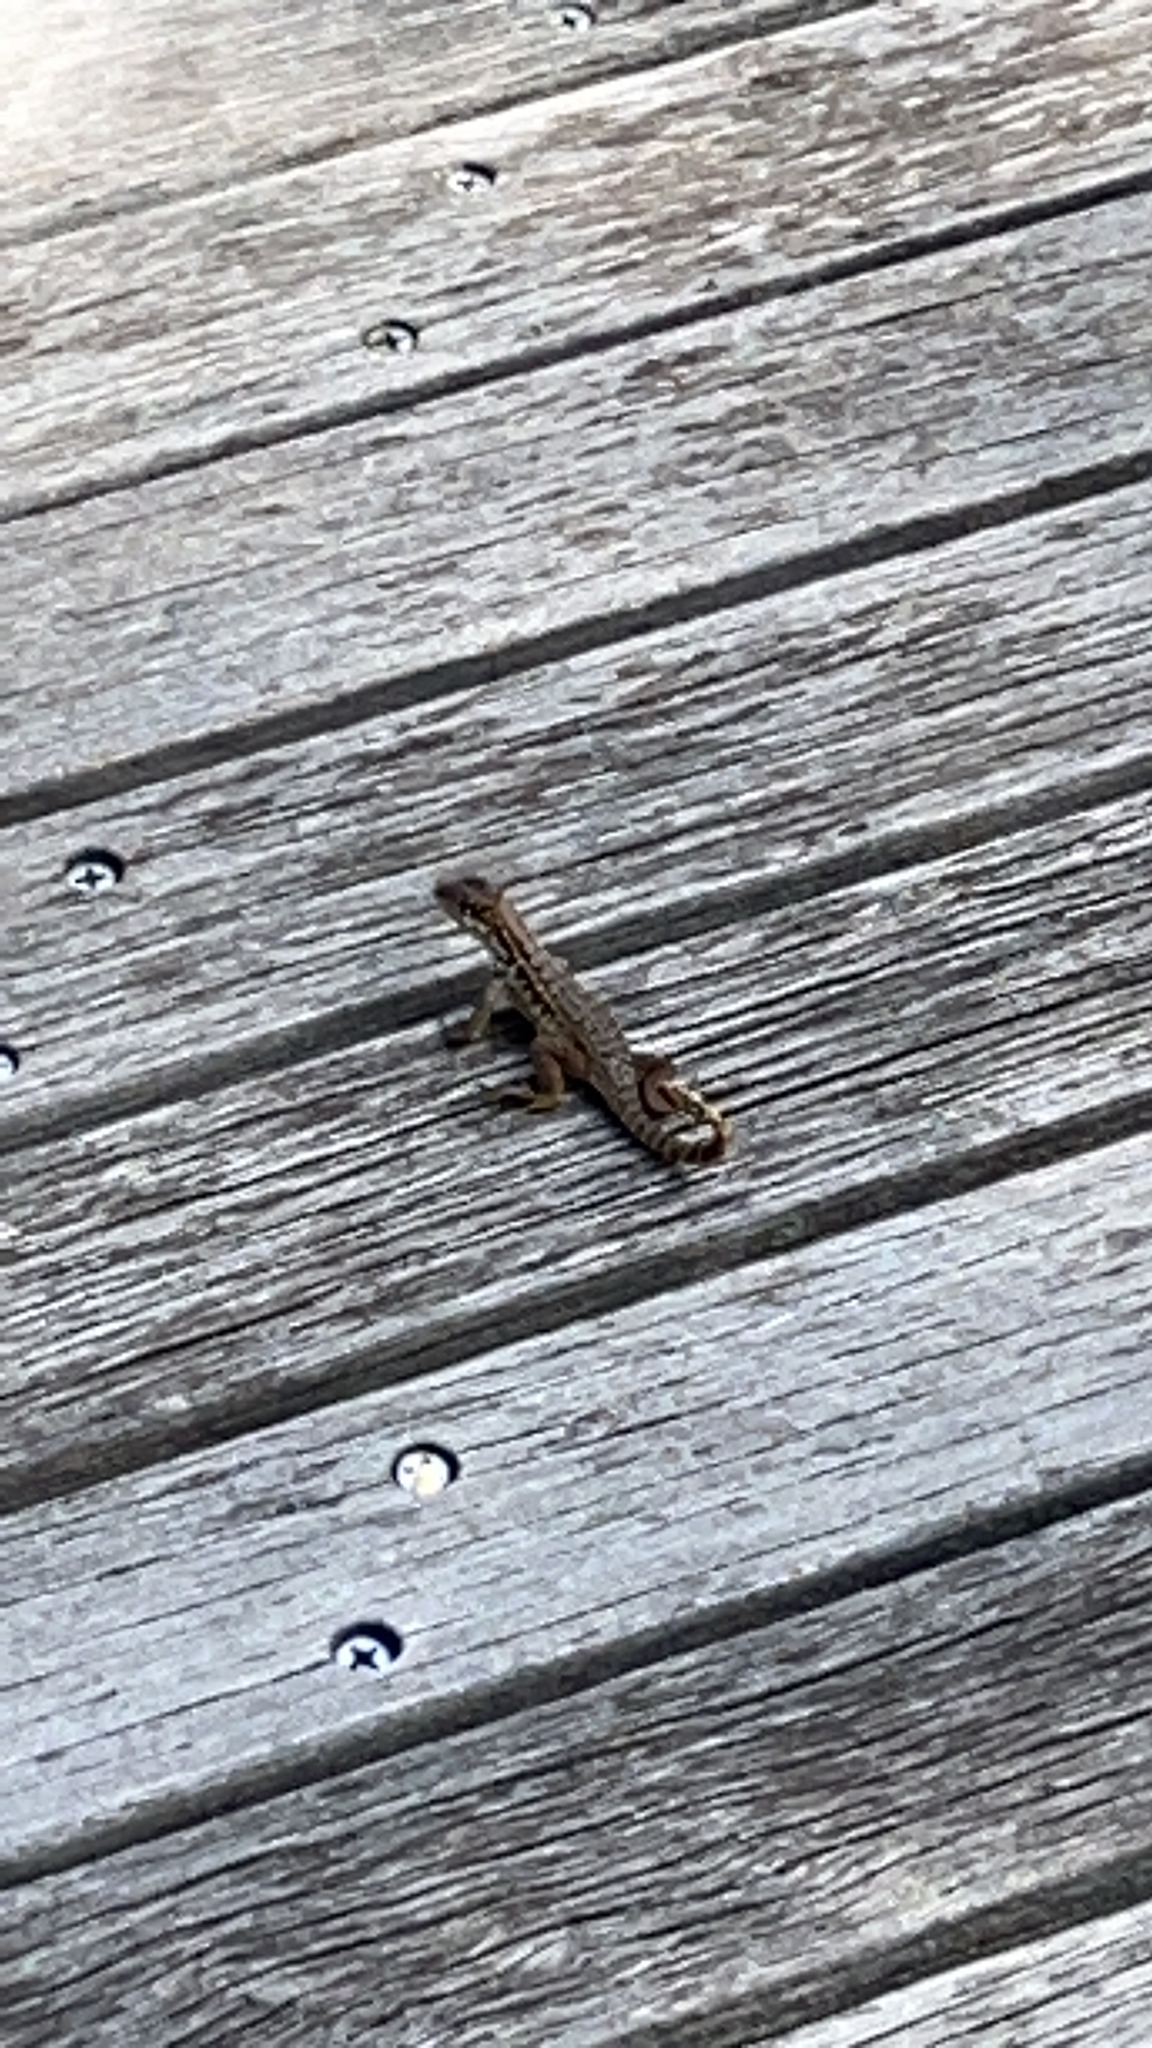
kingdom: Animalia
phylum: Chordata
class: Squamata
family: Leiocephalidae
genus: Leiocephalus
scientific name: Leiocephalus carinatus
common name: Northern curly-tailed lizard
